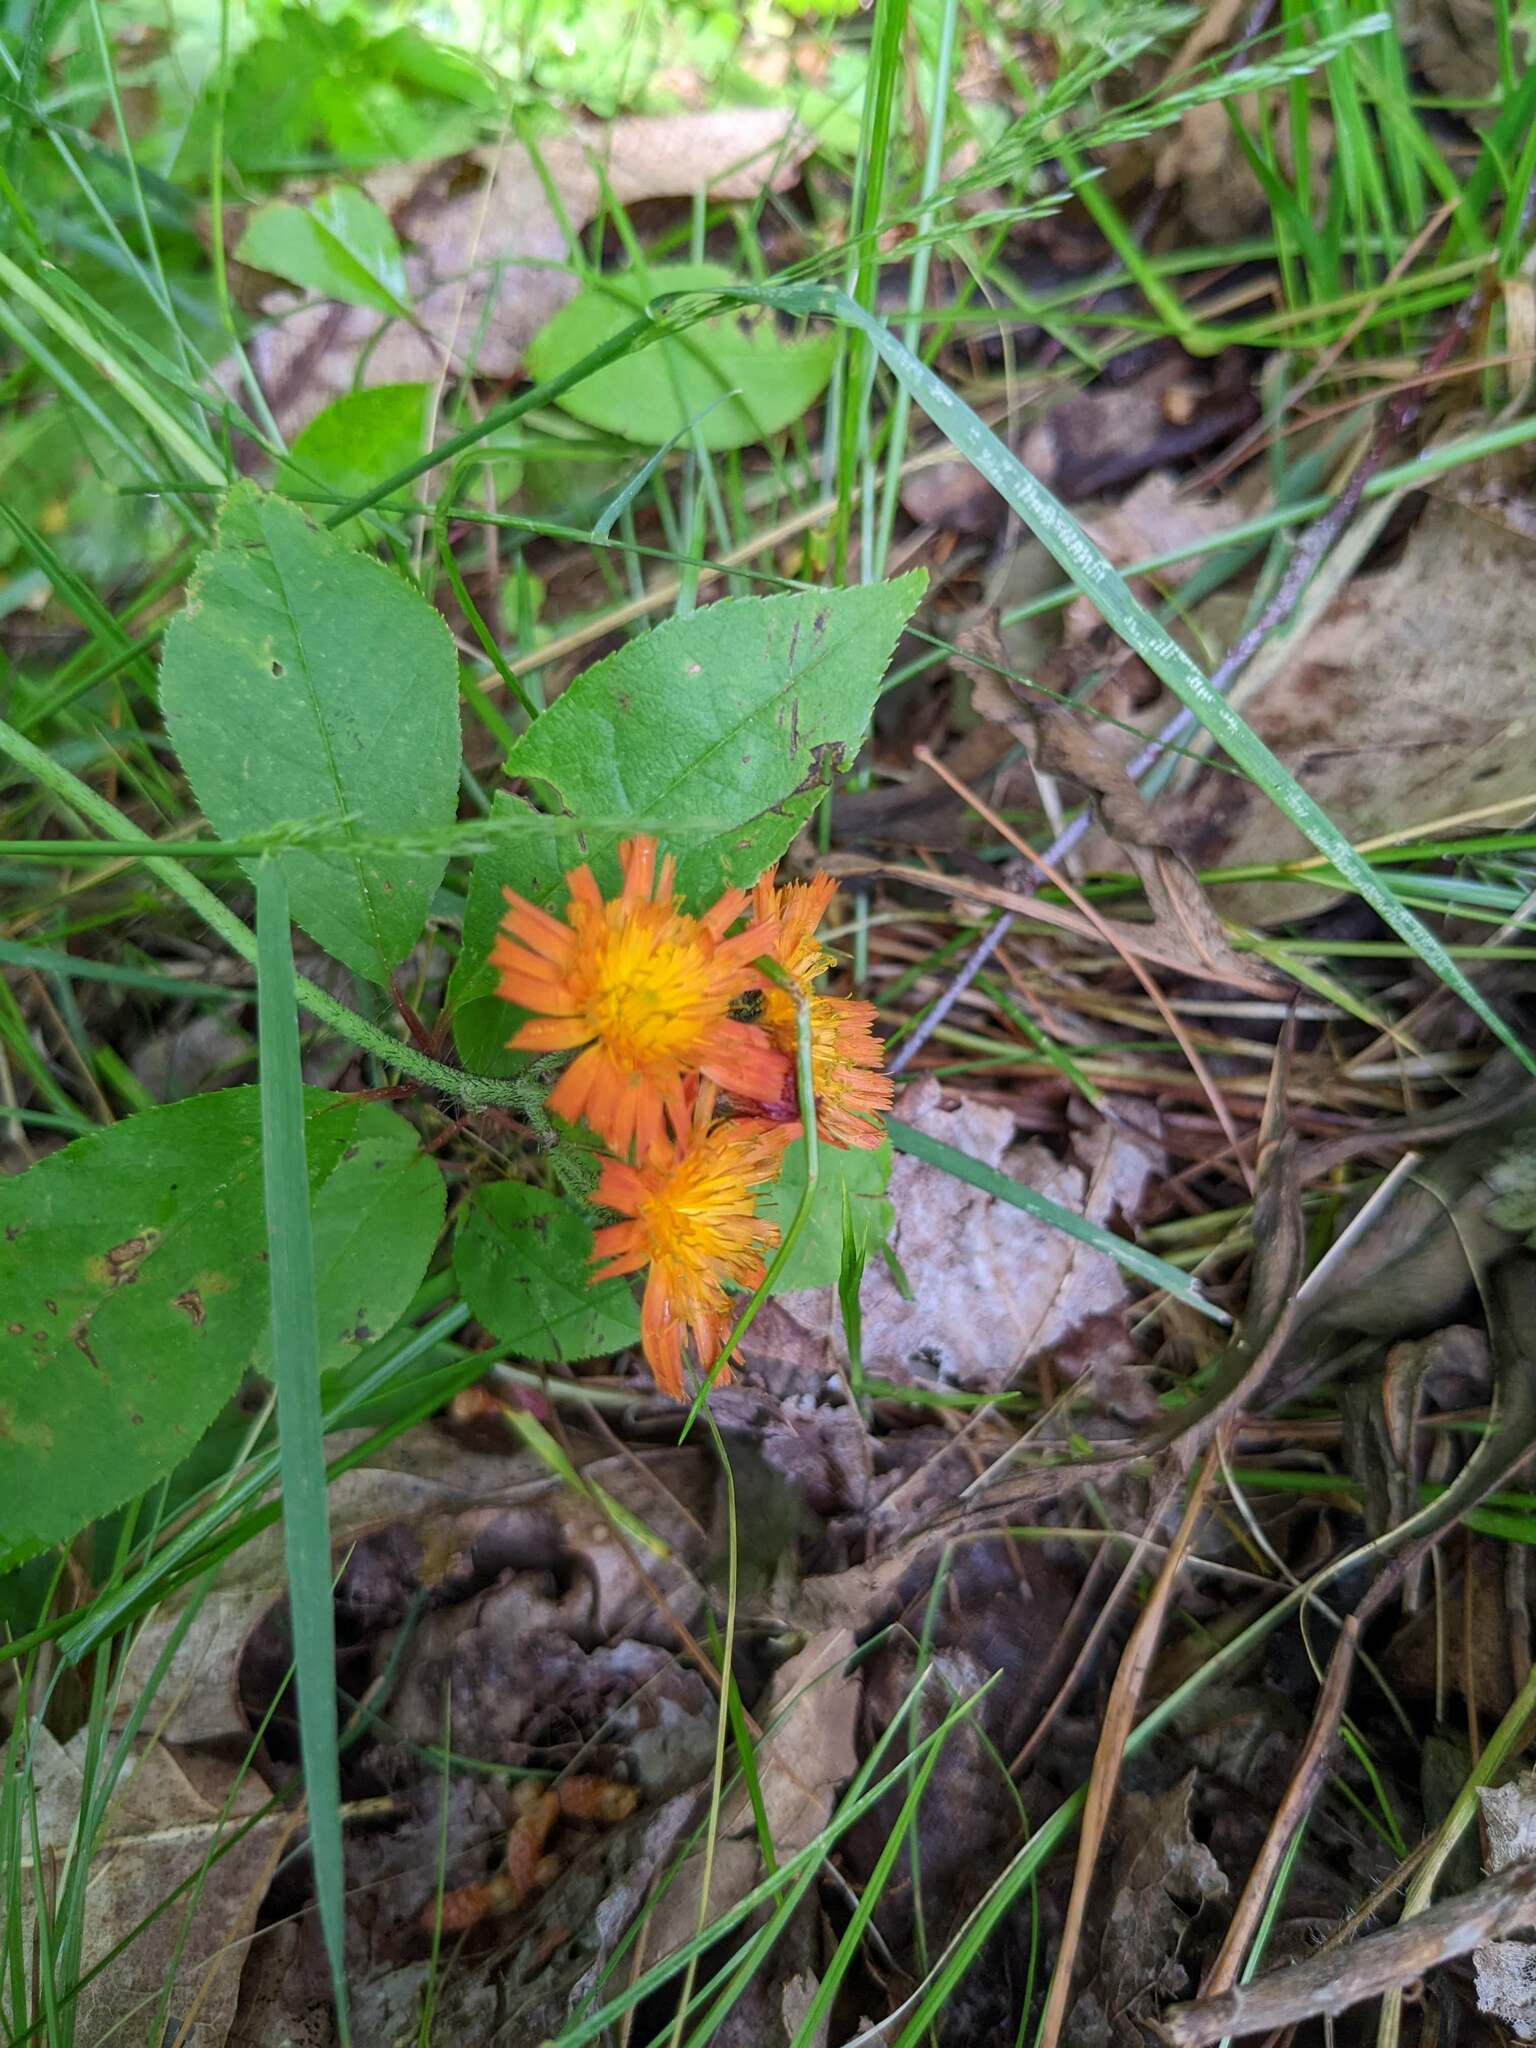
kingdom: Plantae
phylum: Tracheophyta
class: Magnoliopsida
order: Asterales
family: Asteraceae
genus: Pilosella
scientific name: Pilosella aurantiaca
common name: Fox-and-cubs
